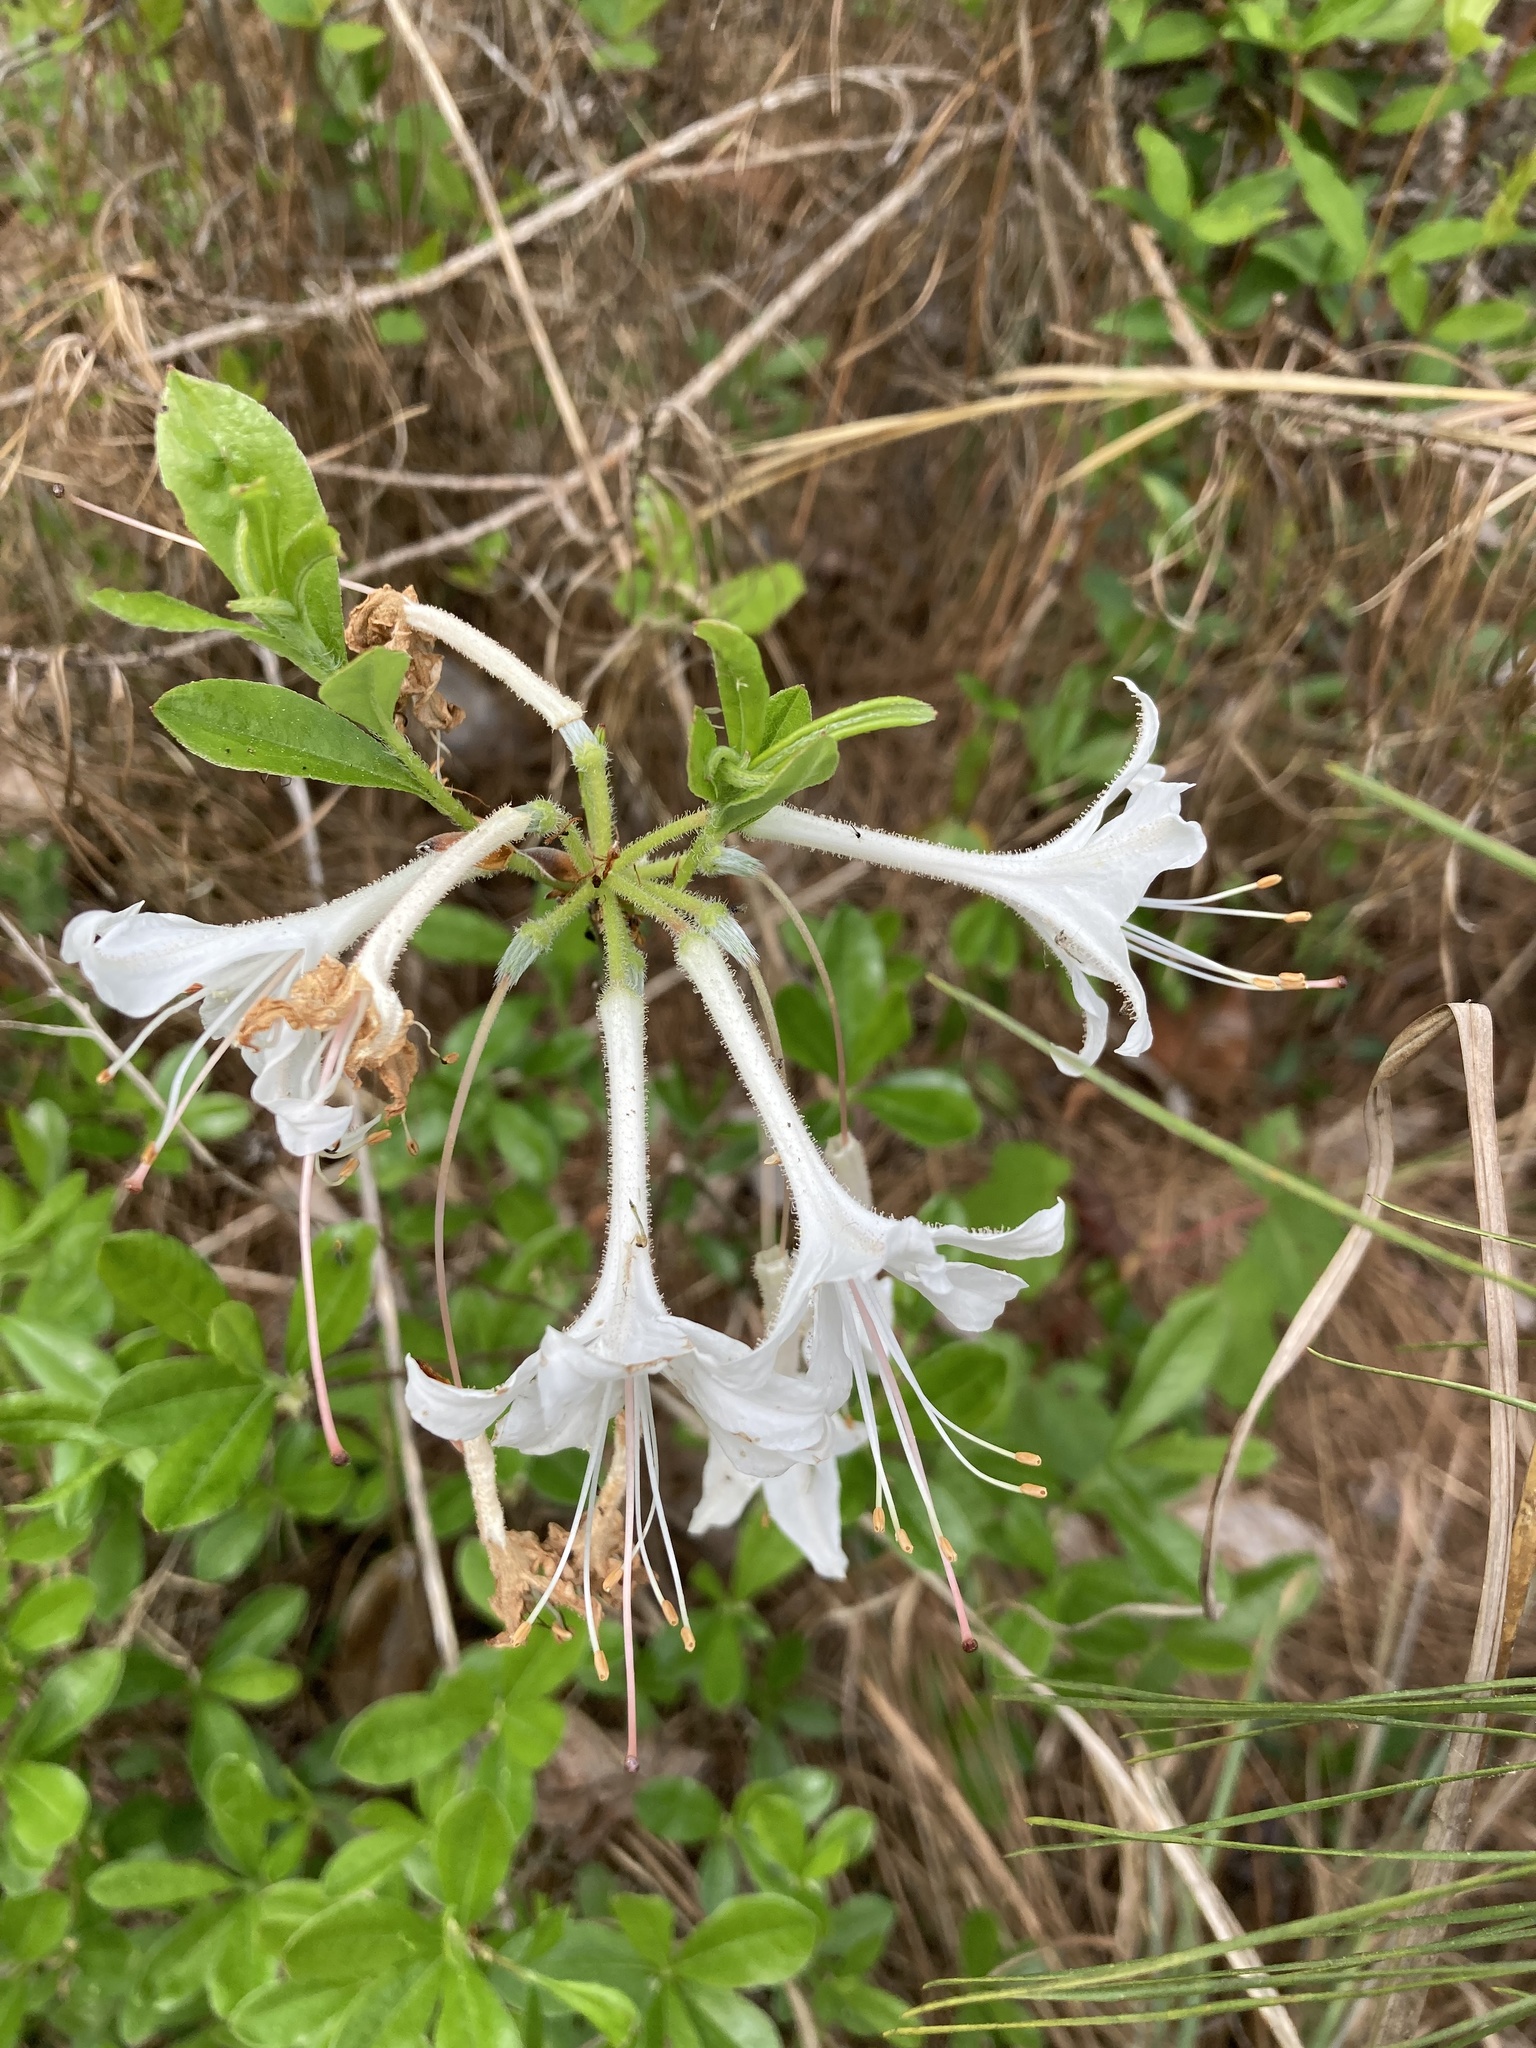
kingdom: Plantae
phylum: Tracheophyta
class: Magnoliopsida
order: Ericales
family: Ericaceae
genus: Rhododendron
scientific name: Rhododendron viscosum
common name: Clammy azalea
